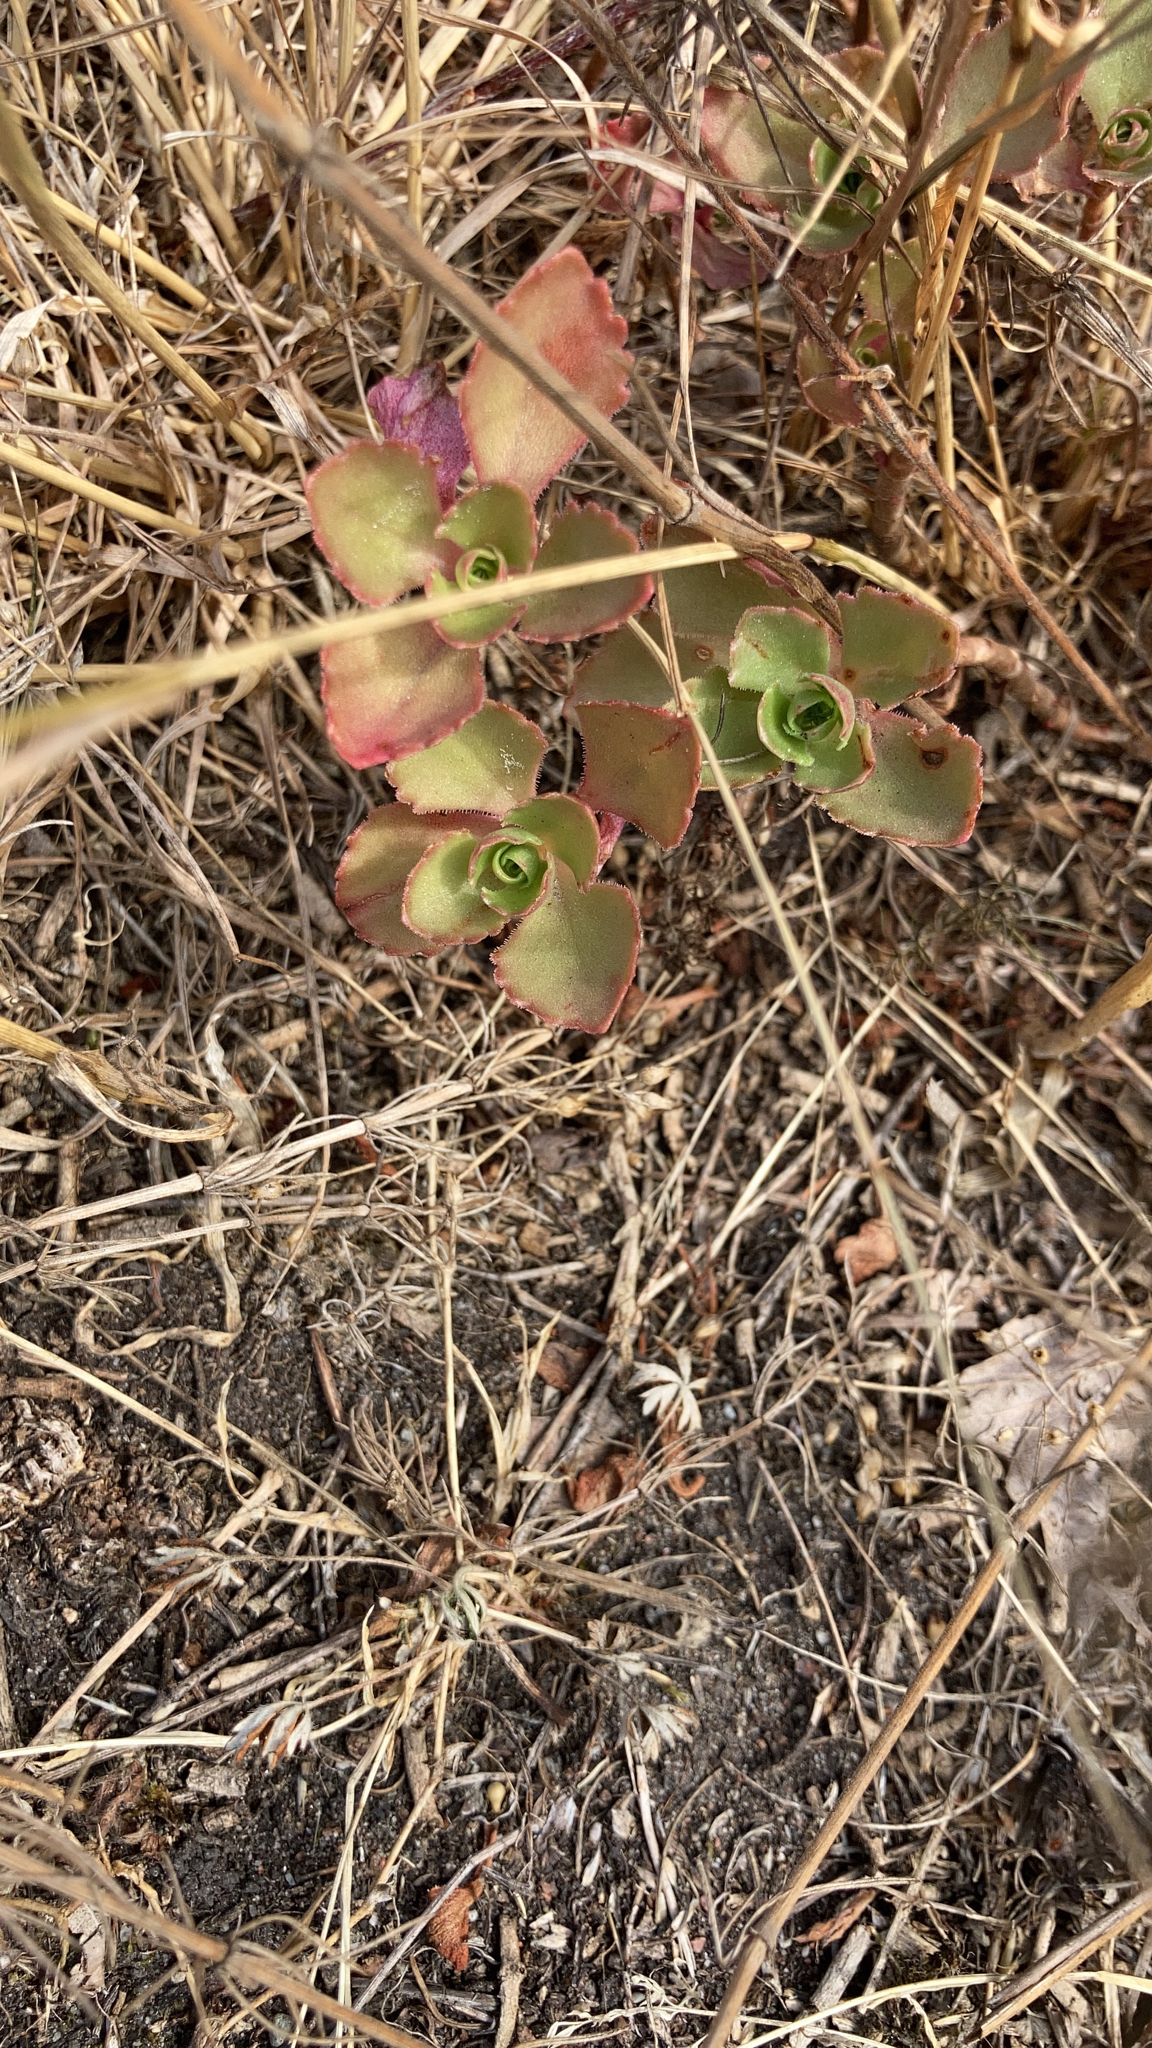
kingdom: Plantae
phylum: Tracheophyta
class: Magnoliopsida
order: Saxifragales
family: Crassulaceae
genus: Phedimus
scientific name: Phedimus spurius
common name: Caucasian stonecrop
